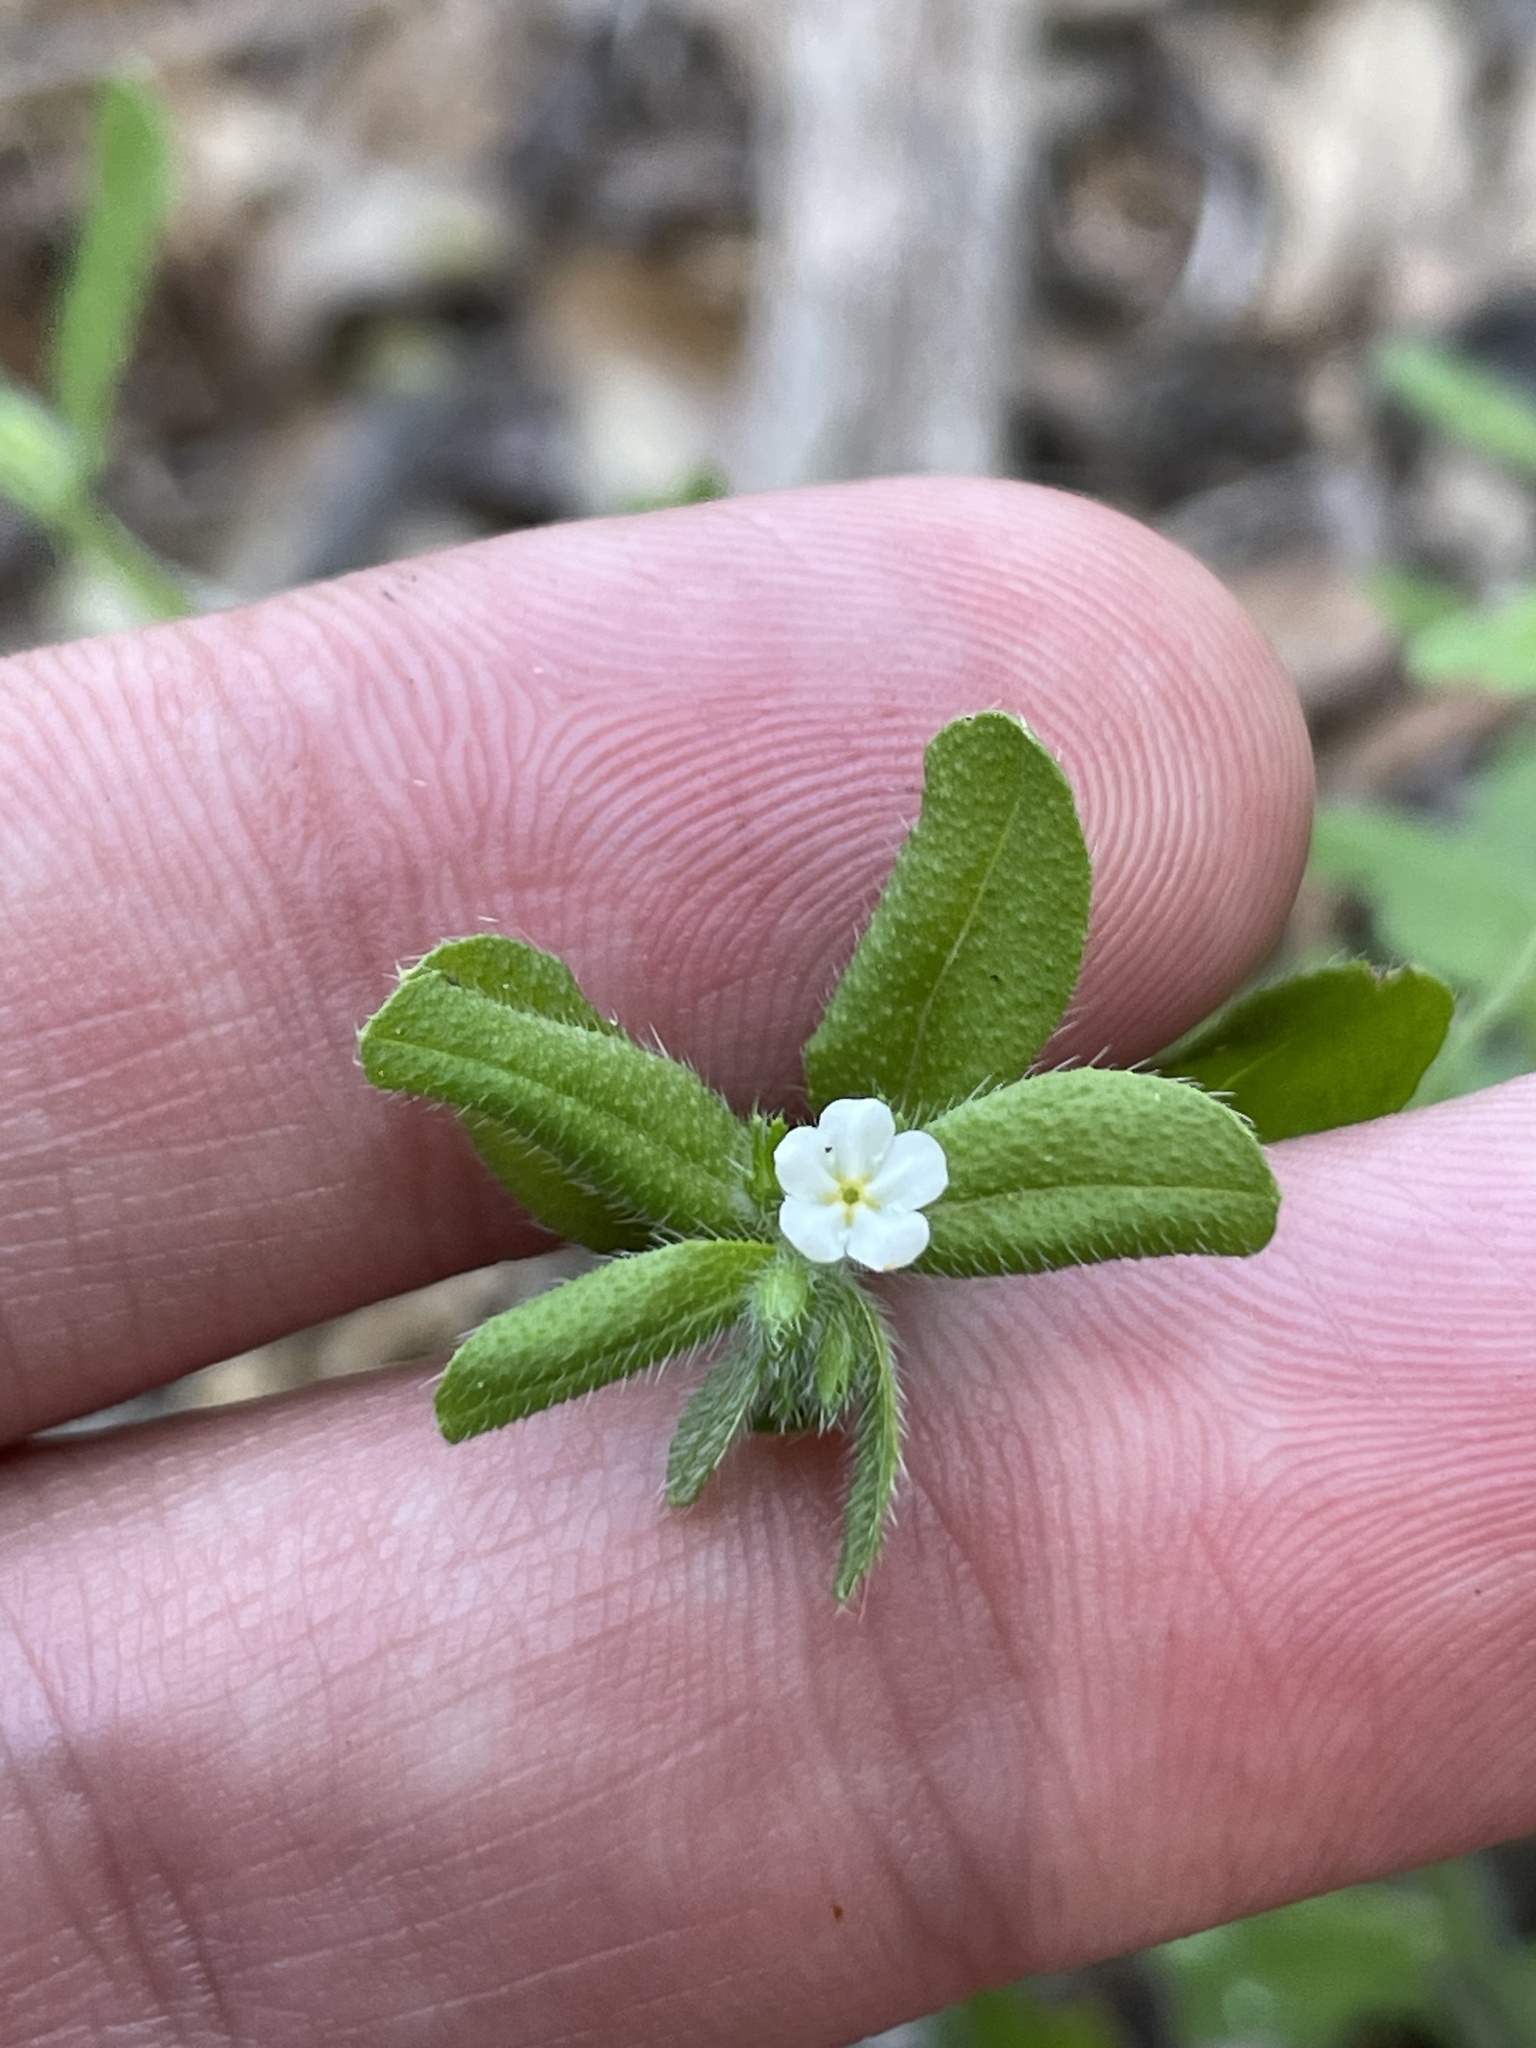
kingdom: Plantae
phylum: Tracheophyta
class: Magnoliopsida
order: Boraginales
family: Boraginaceae
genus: Lithospermum
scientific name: Lithospermum matamorense
